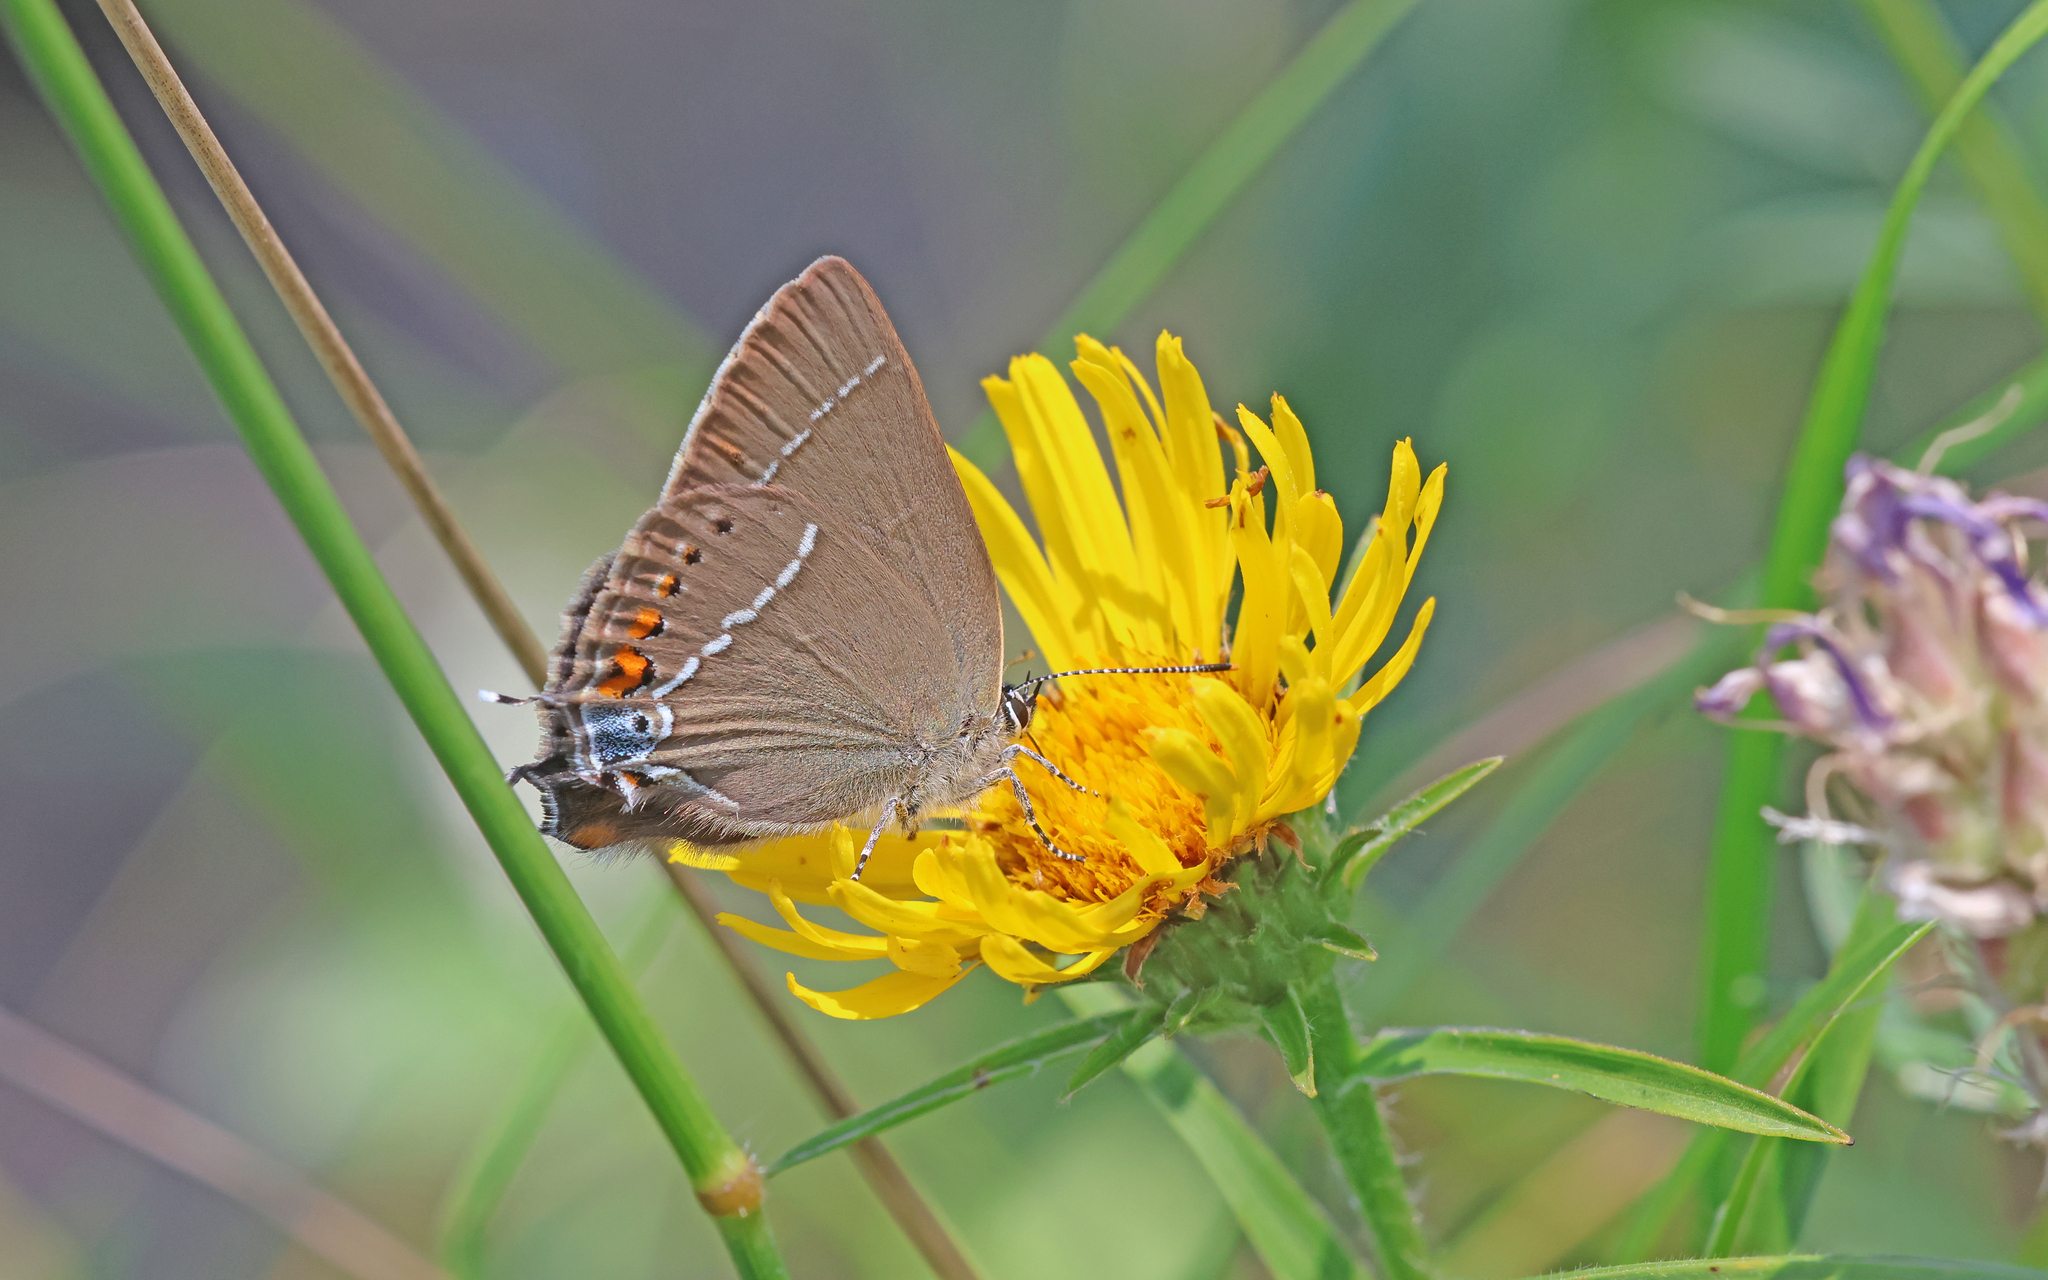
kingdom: Animalia
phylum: Arthropoda
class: Insecta
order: Lepidoptera
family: Lycaenidae
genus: Tuttiola
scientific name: Tuttiola spini
